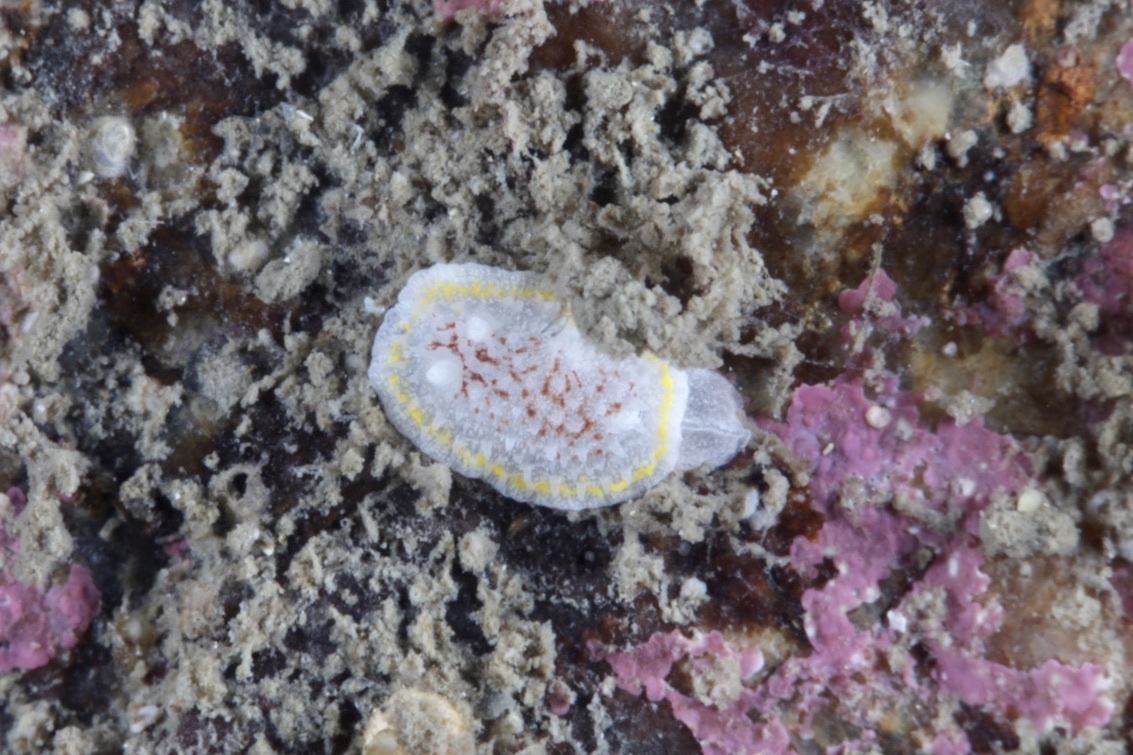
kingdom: Animalia
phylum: Mollusca
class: Gastropoda
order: Nudibranchia
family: Calycidorididae
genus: Diaphorodoris
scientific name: Diaphorodoris luteocincta
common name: Fried egg nudibranch
